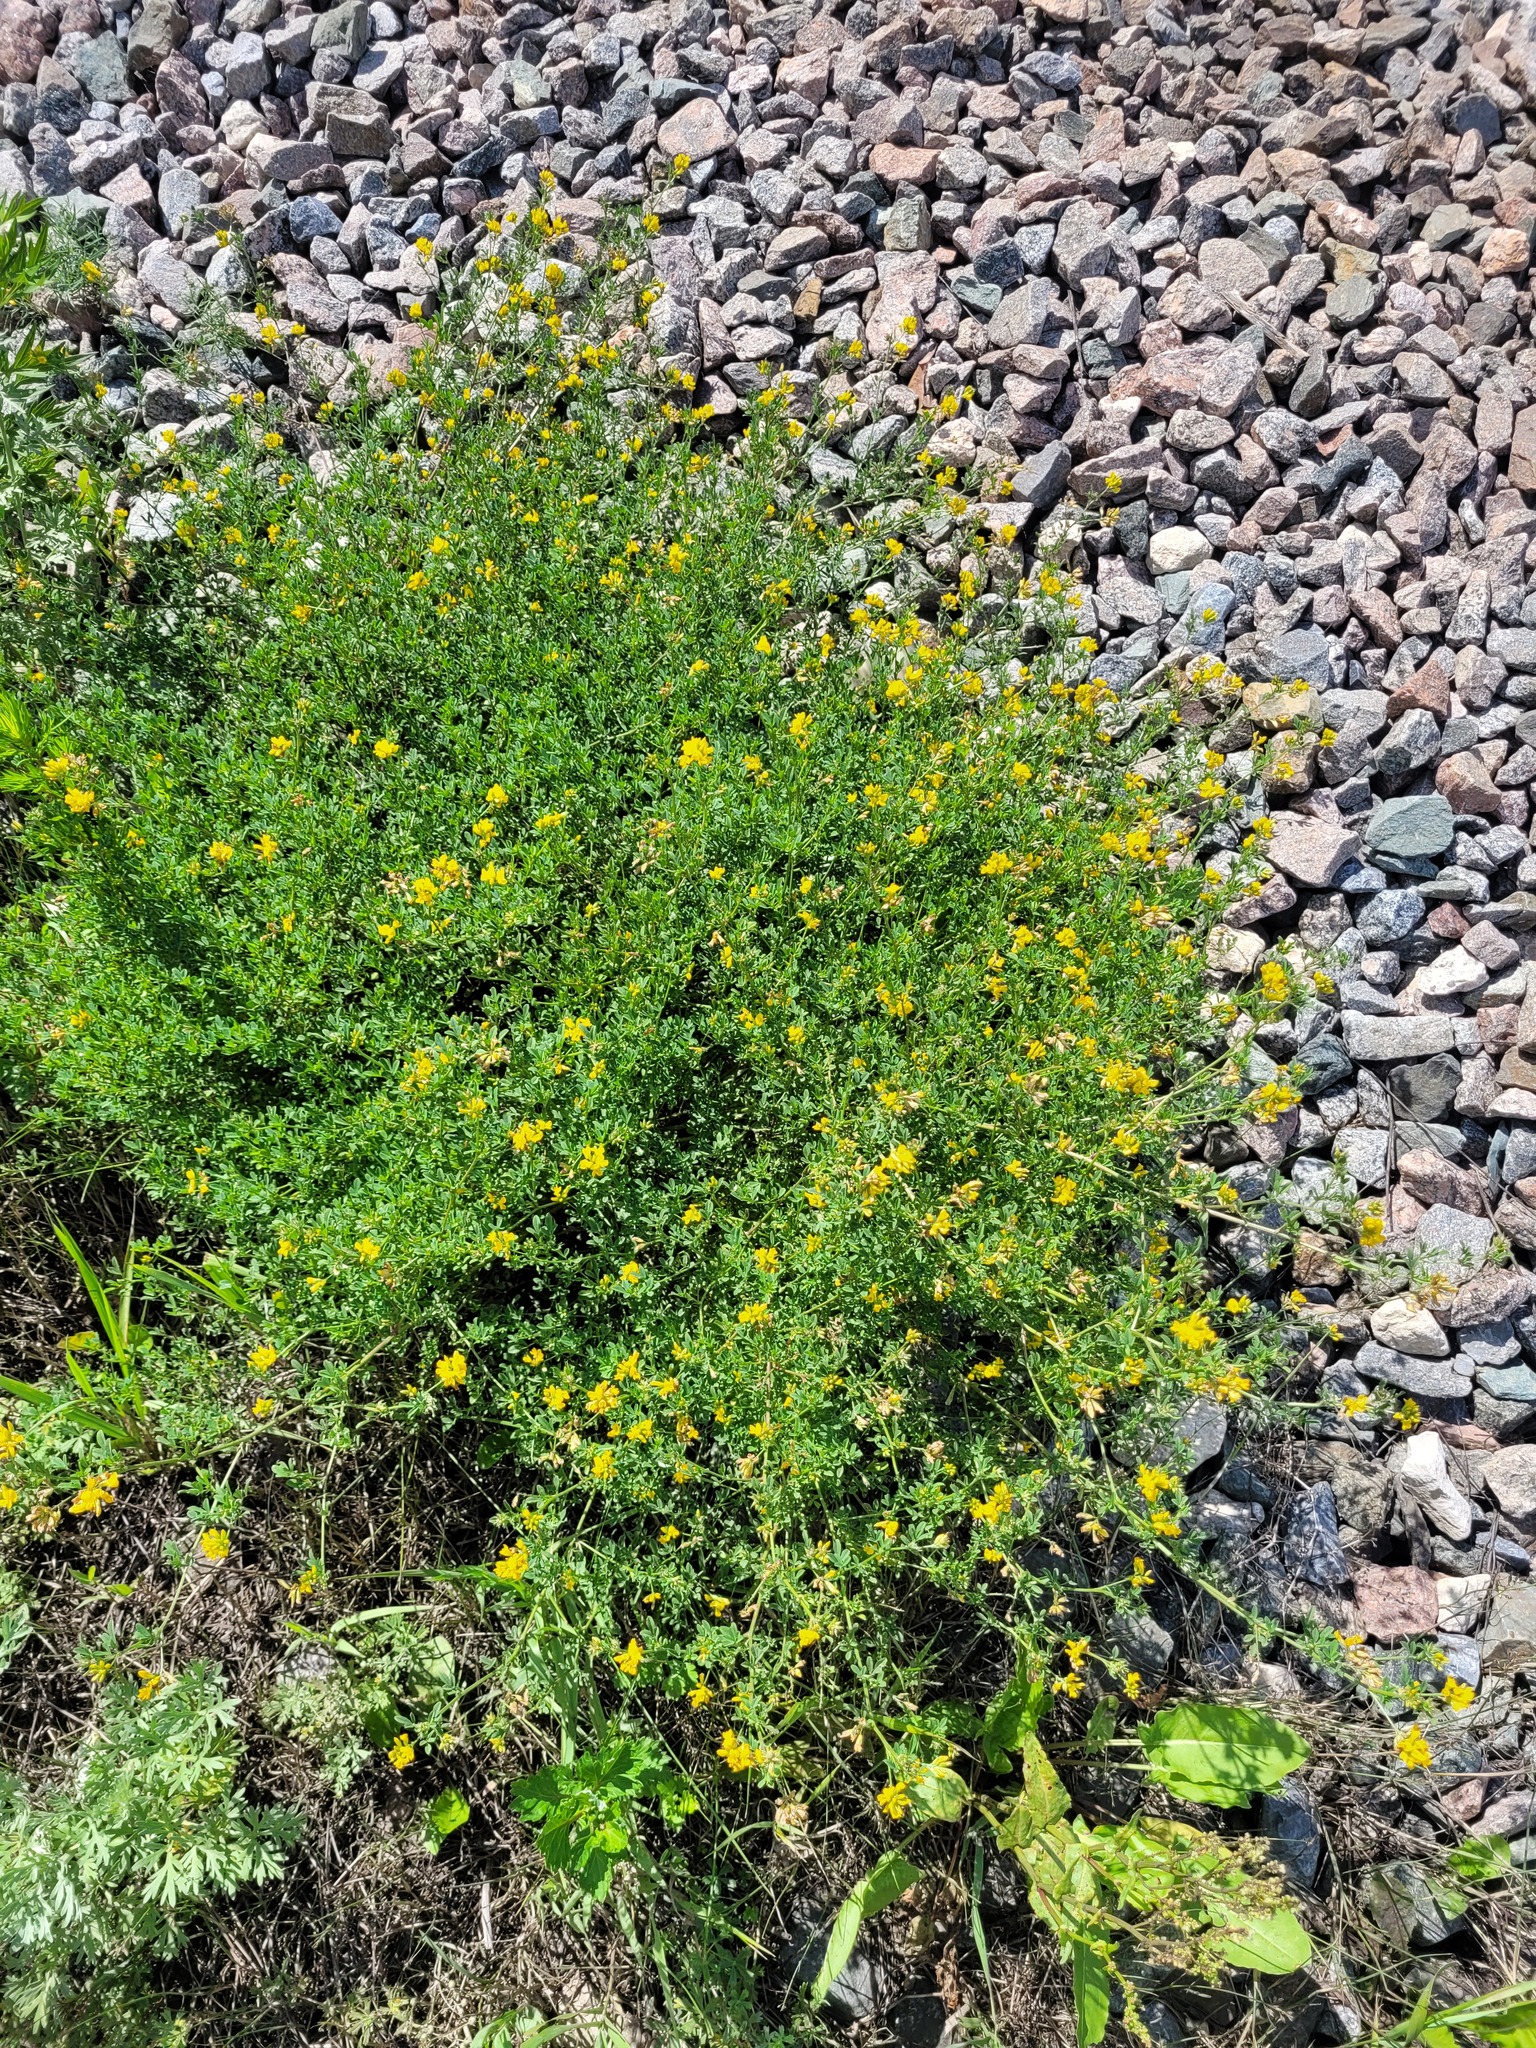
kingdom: Plantae
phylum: Tracheophyta
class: Magnoliopsida
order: Fabales
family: Fabaceae
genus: Medicago
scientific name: Medicago falcata
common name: Sickle medick
